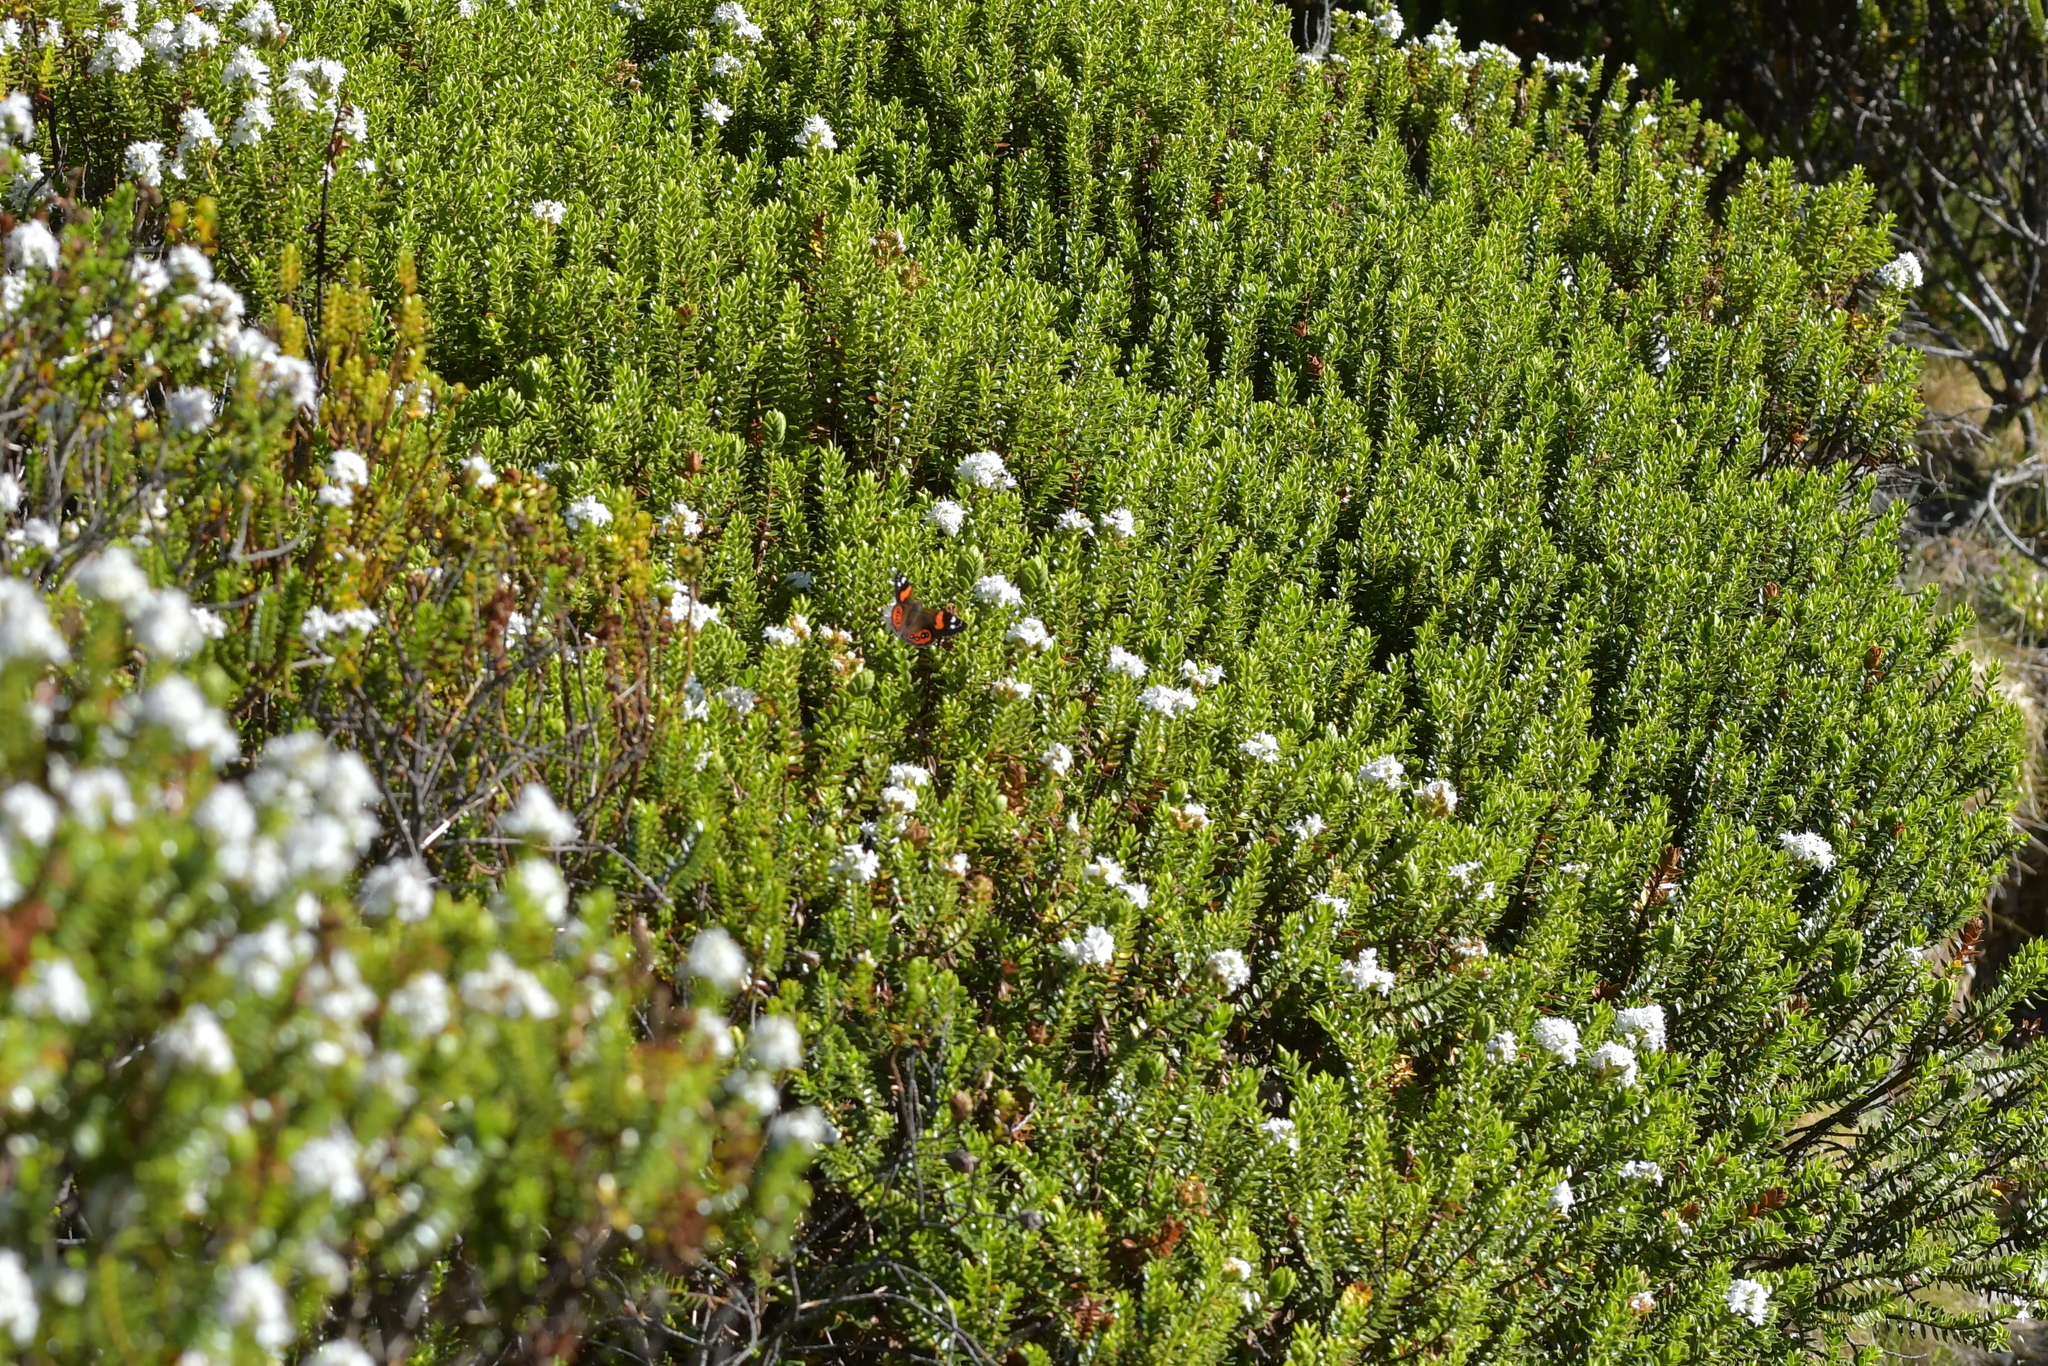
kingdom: Animalia
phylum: Arthropoda
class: Insecta
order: Lepidoptera
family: Nymphalidae
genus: Vanessa
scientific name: Vanessa gonerilla
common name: New zealand red admiral
